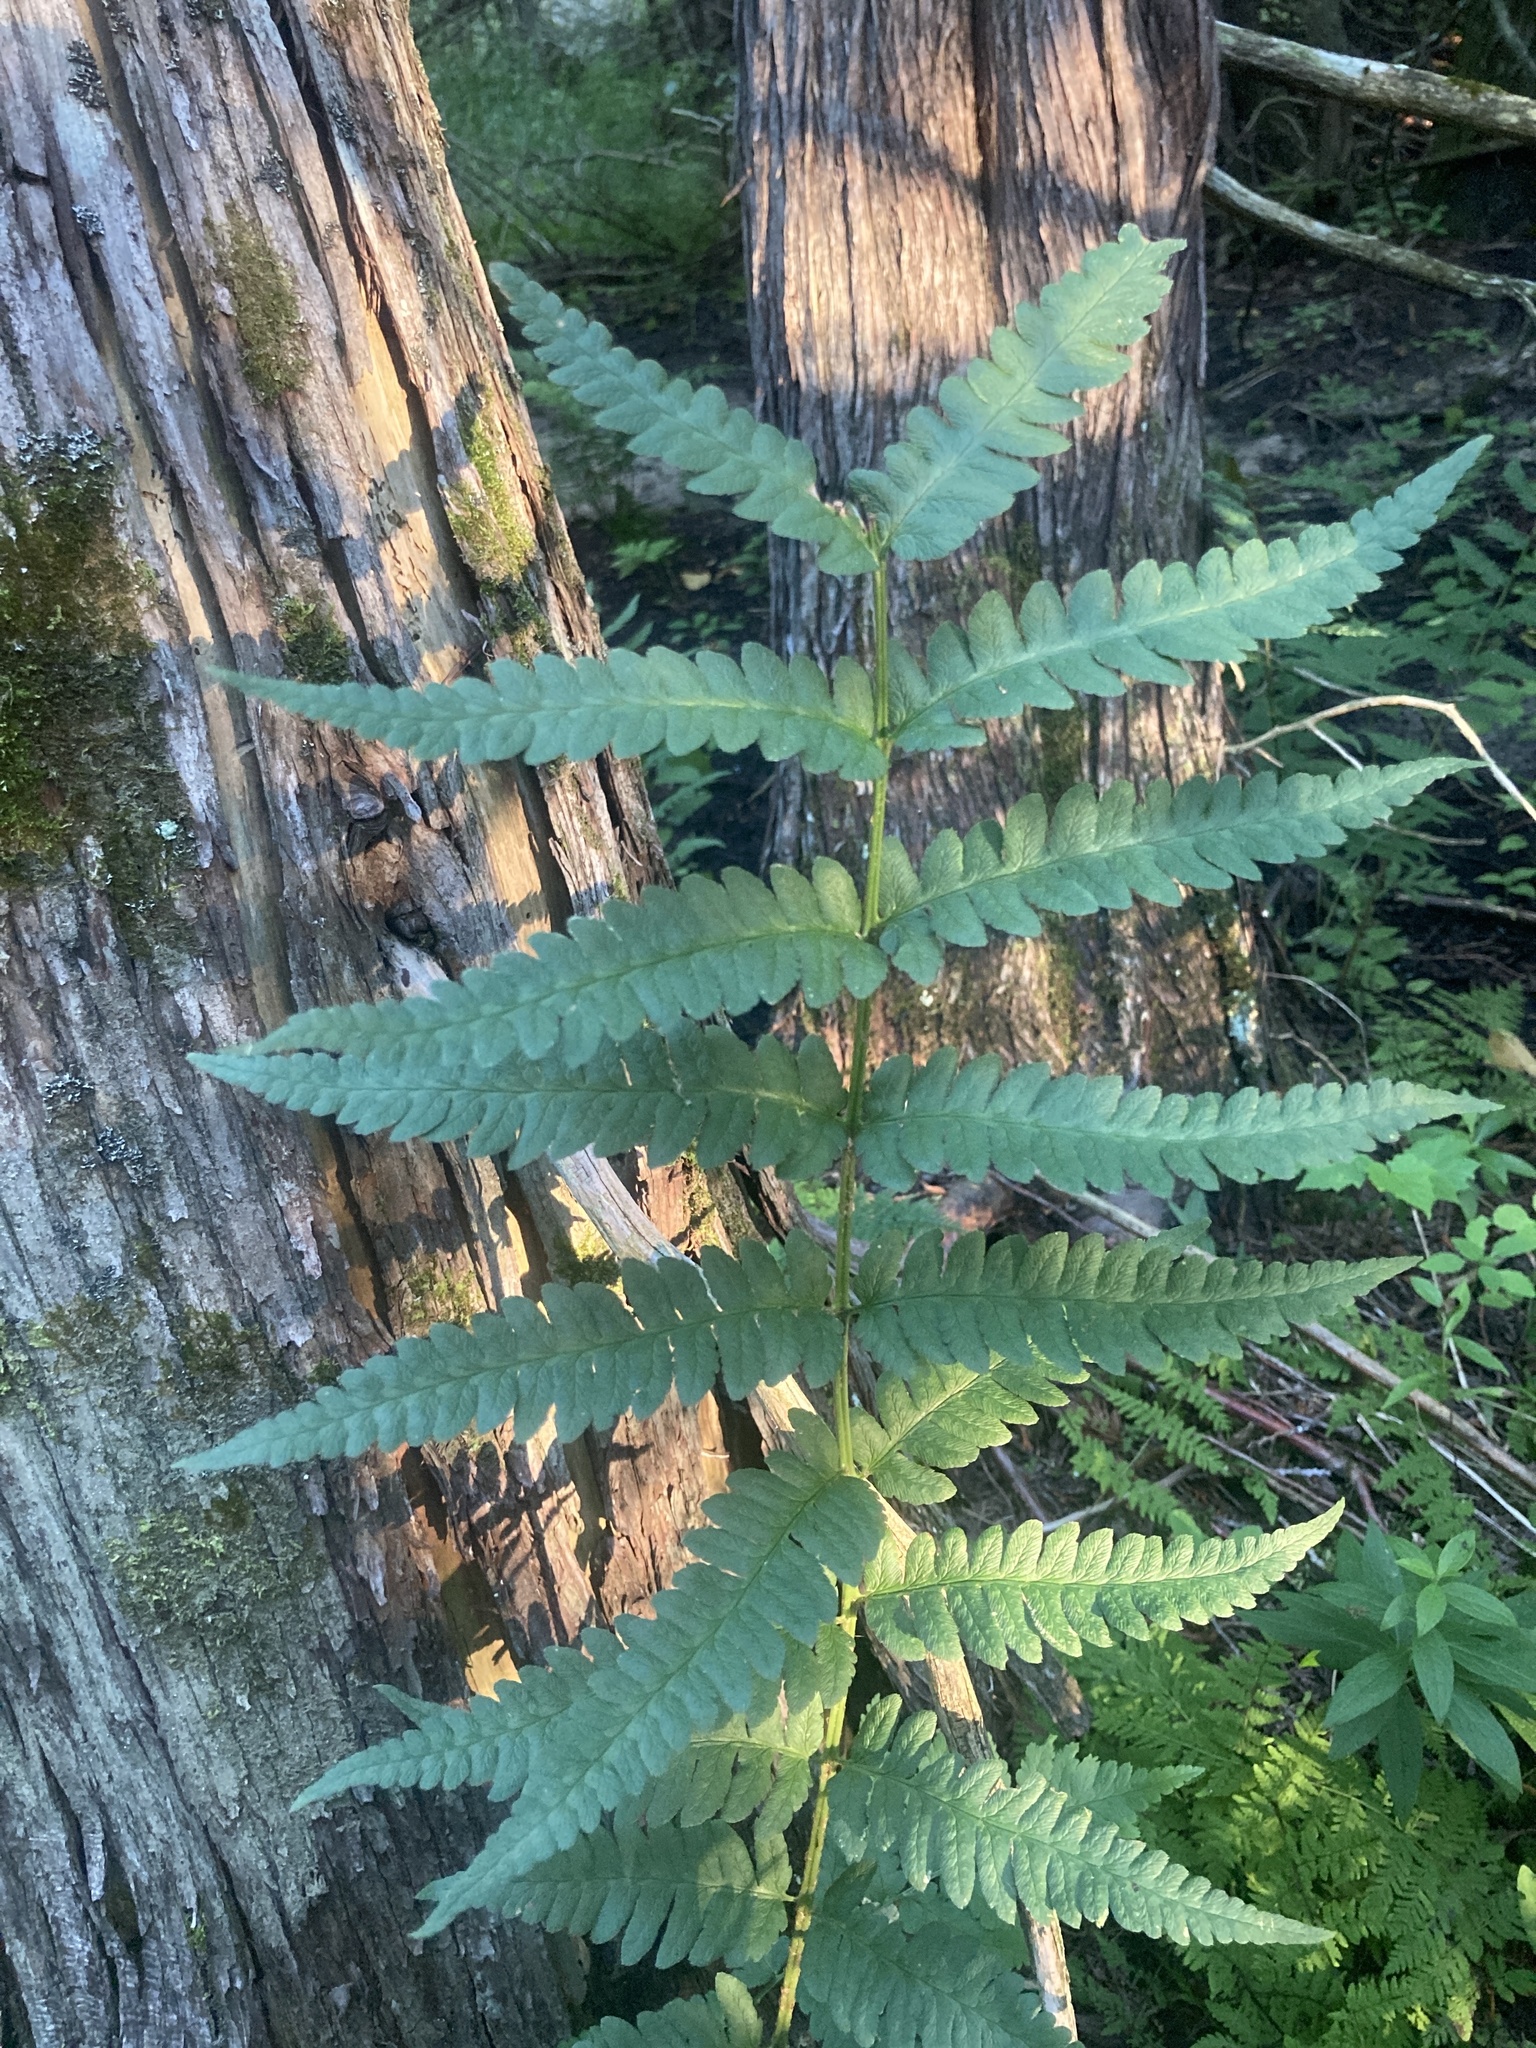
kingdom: Plantae
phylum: Tracheophyta
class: Polypodiopsida
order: Polypodiales
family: Dryopteridaceae
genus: Dryopteris
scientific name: Dryopteris clintoniana
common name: Clinton's wood fern
